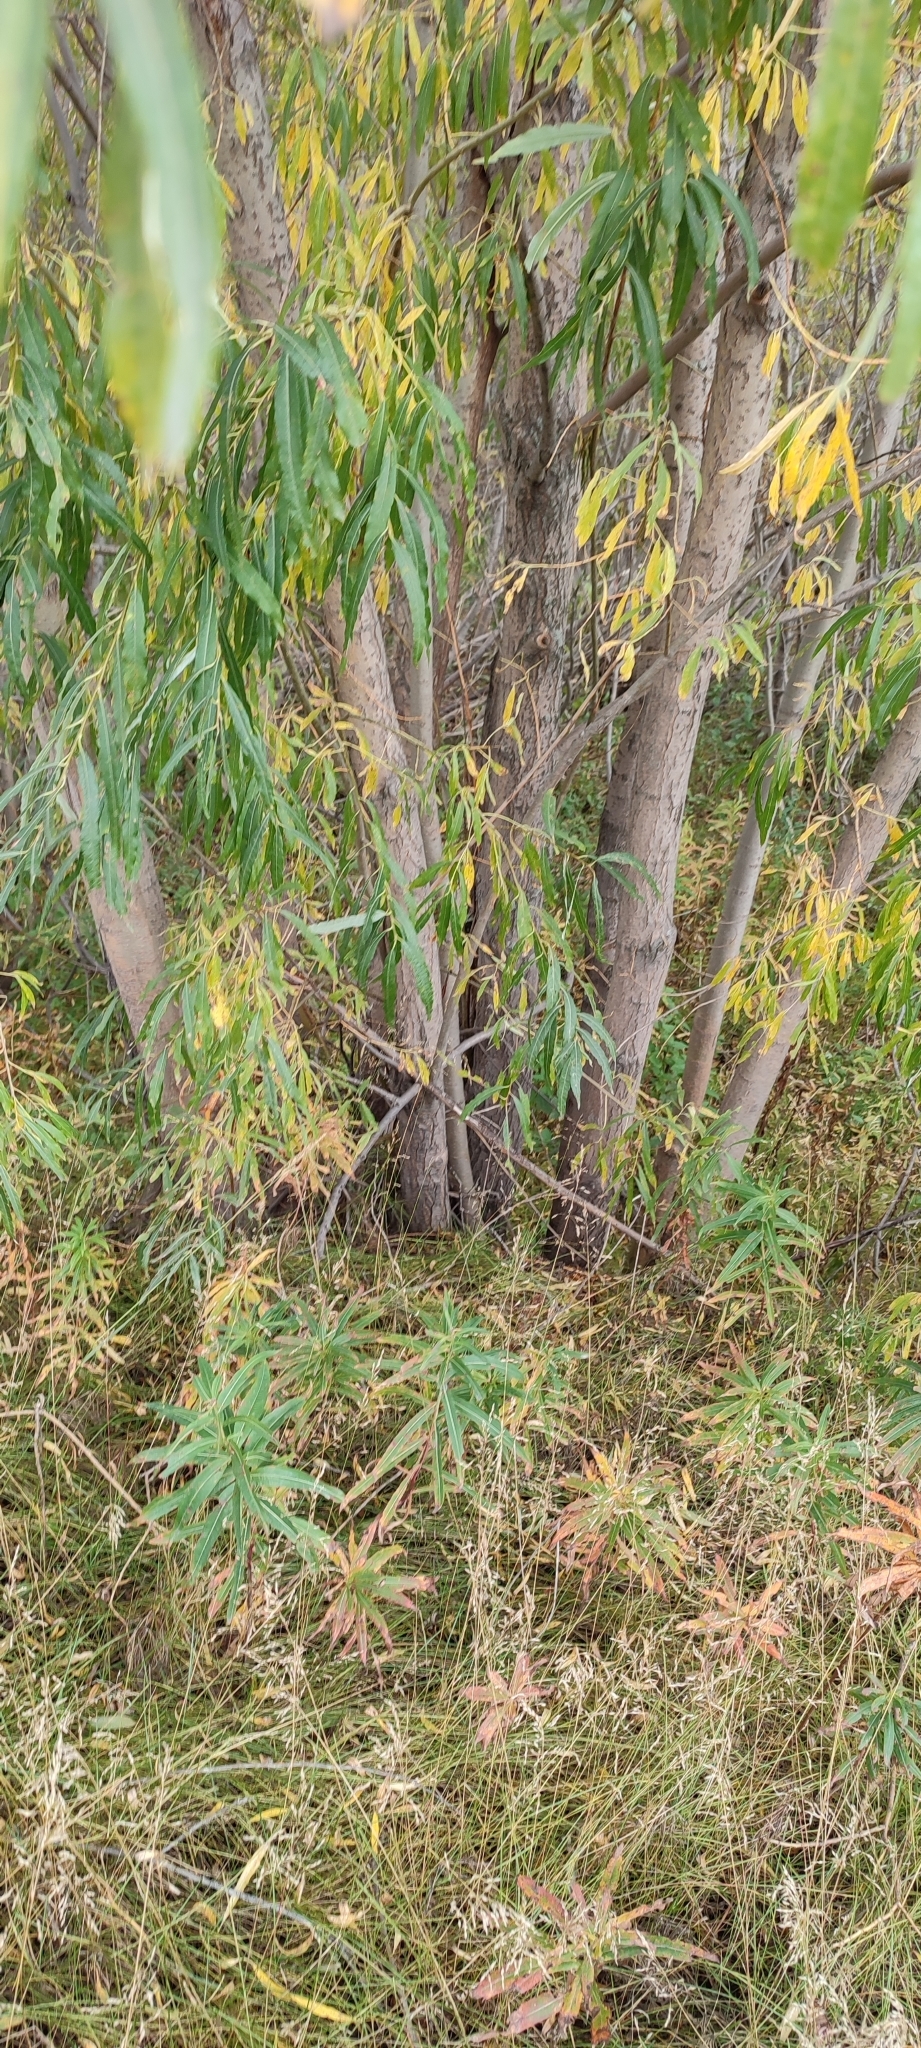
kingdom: Plantae
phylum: Tracheophyta
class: Magnoliopsida
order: Malpighiales
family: Salicaceae
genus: Salix
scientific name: Salix viminalis
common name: Osier
